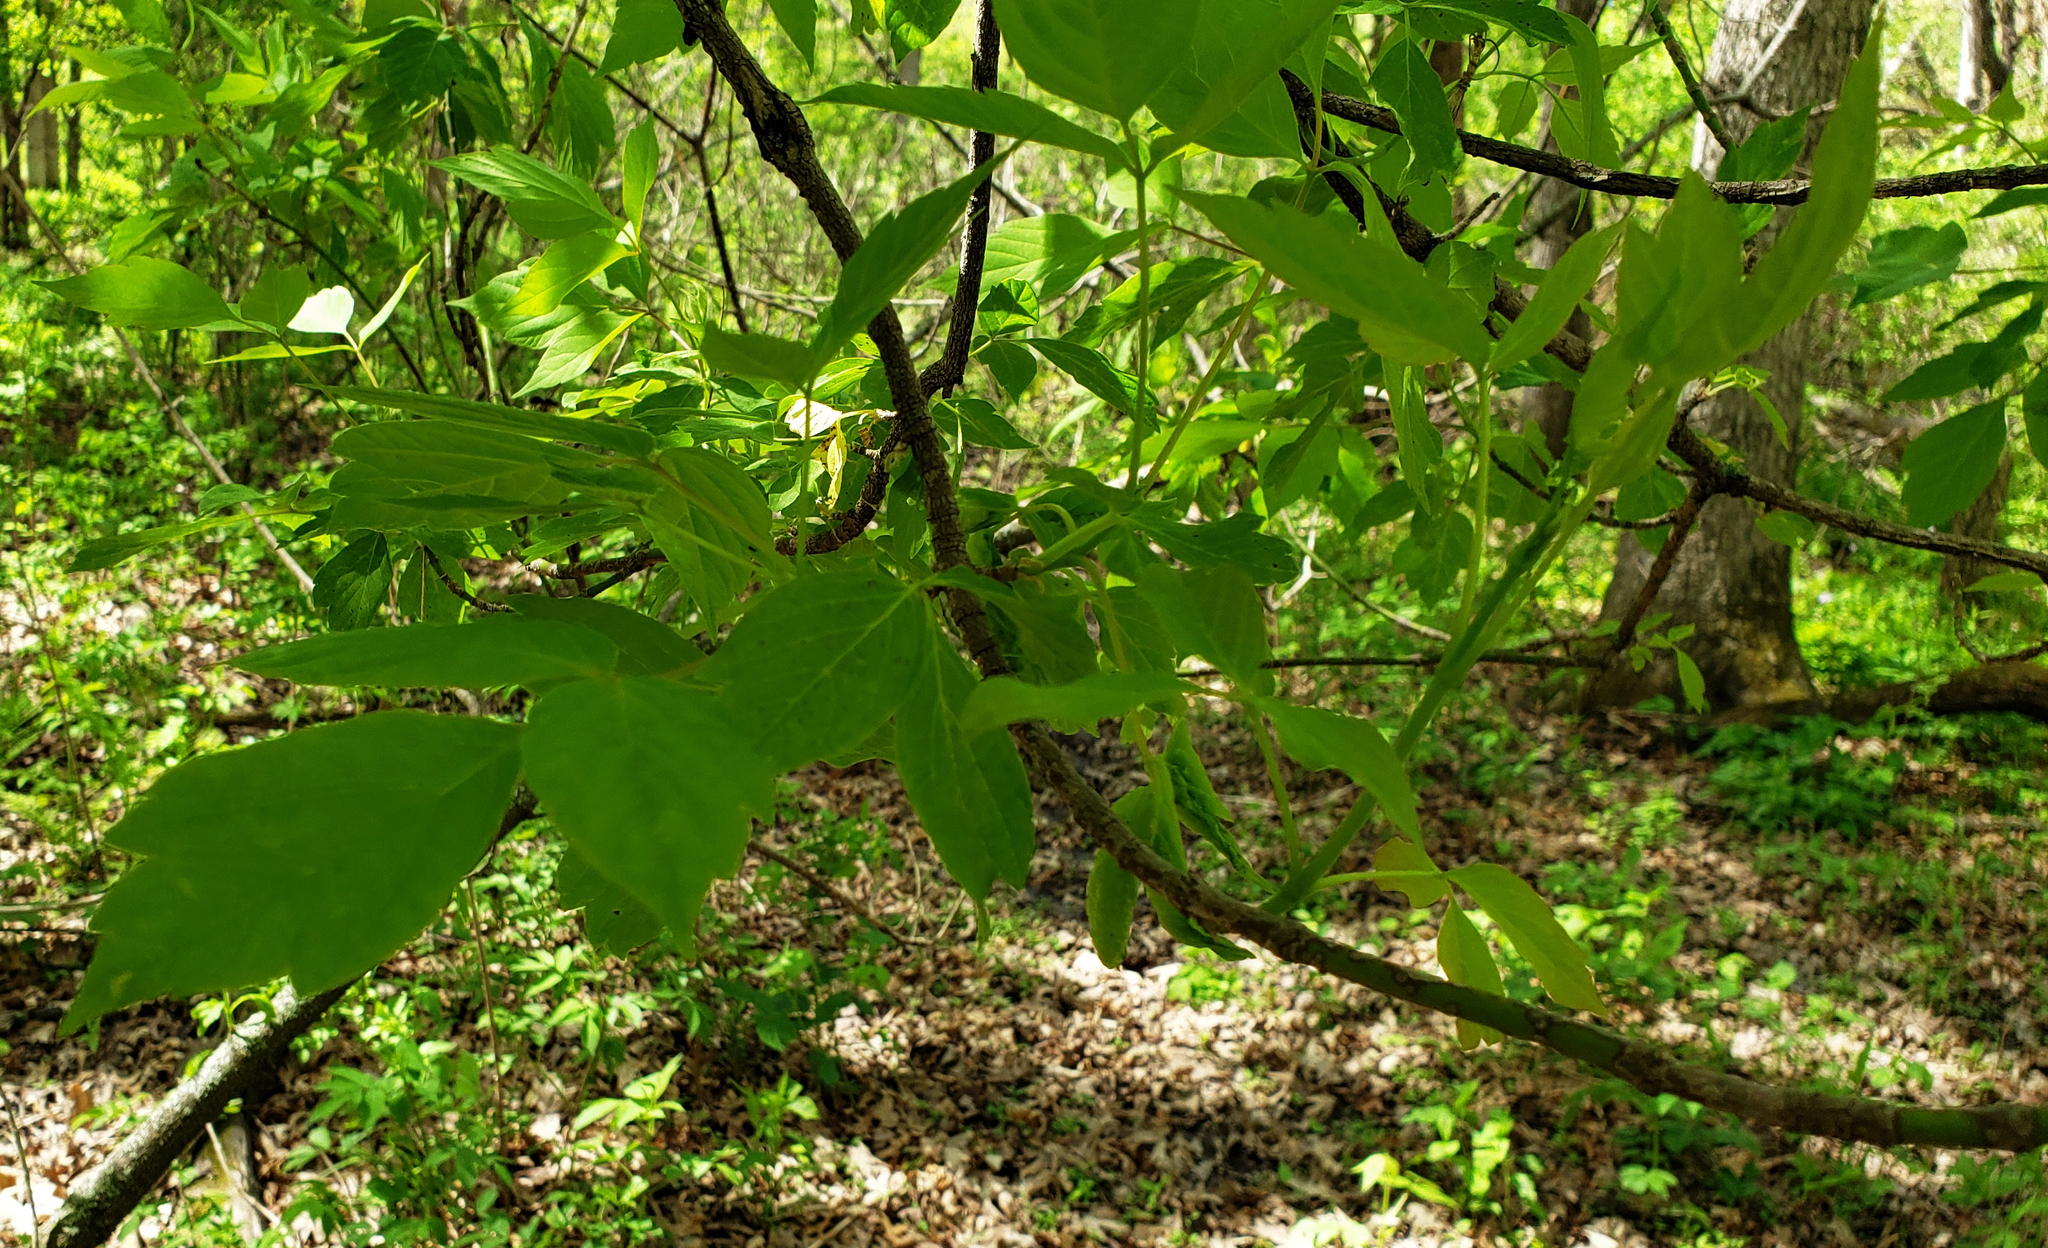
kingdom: Plantae
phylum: Tracheophyta
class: Magnoliopsida
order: Sapindales
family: Sapindaceae
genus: Acer
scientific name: Acer negundo
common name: Ashleaf maple
